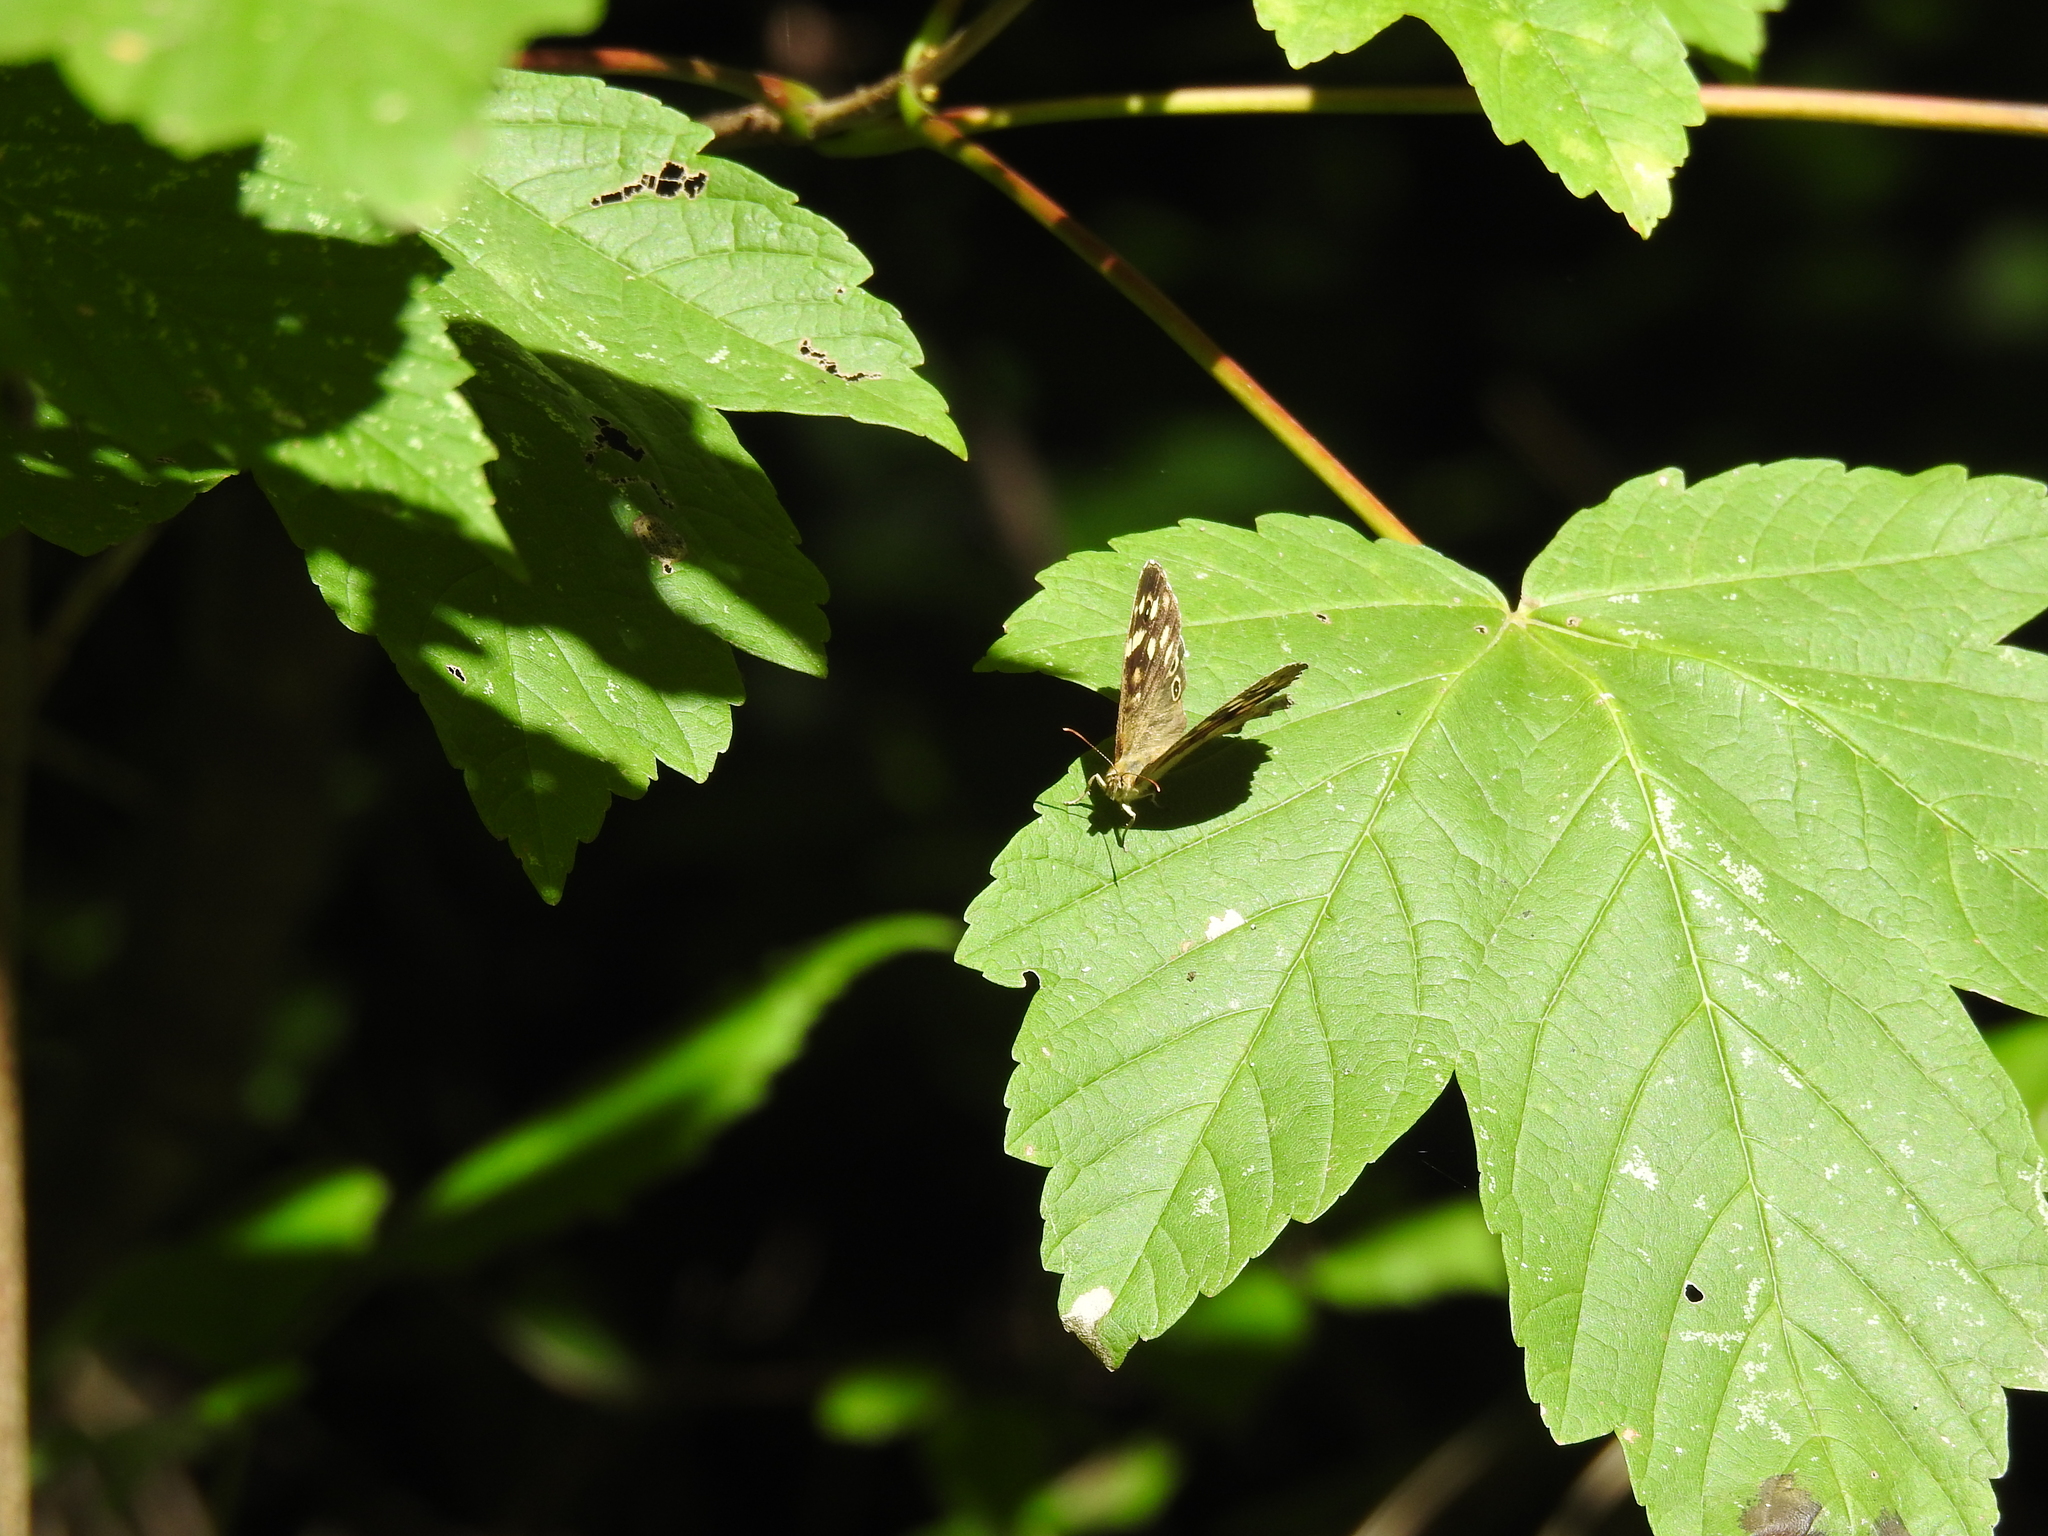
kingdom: Animalia
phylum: Arthropoda
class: Insecta
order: Lepidoptera
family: Nymphalidae
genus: Pararge
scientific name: Pararge aegeria
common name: Speckled wood
